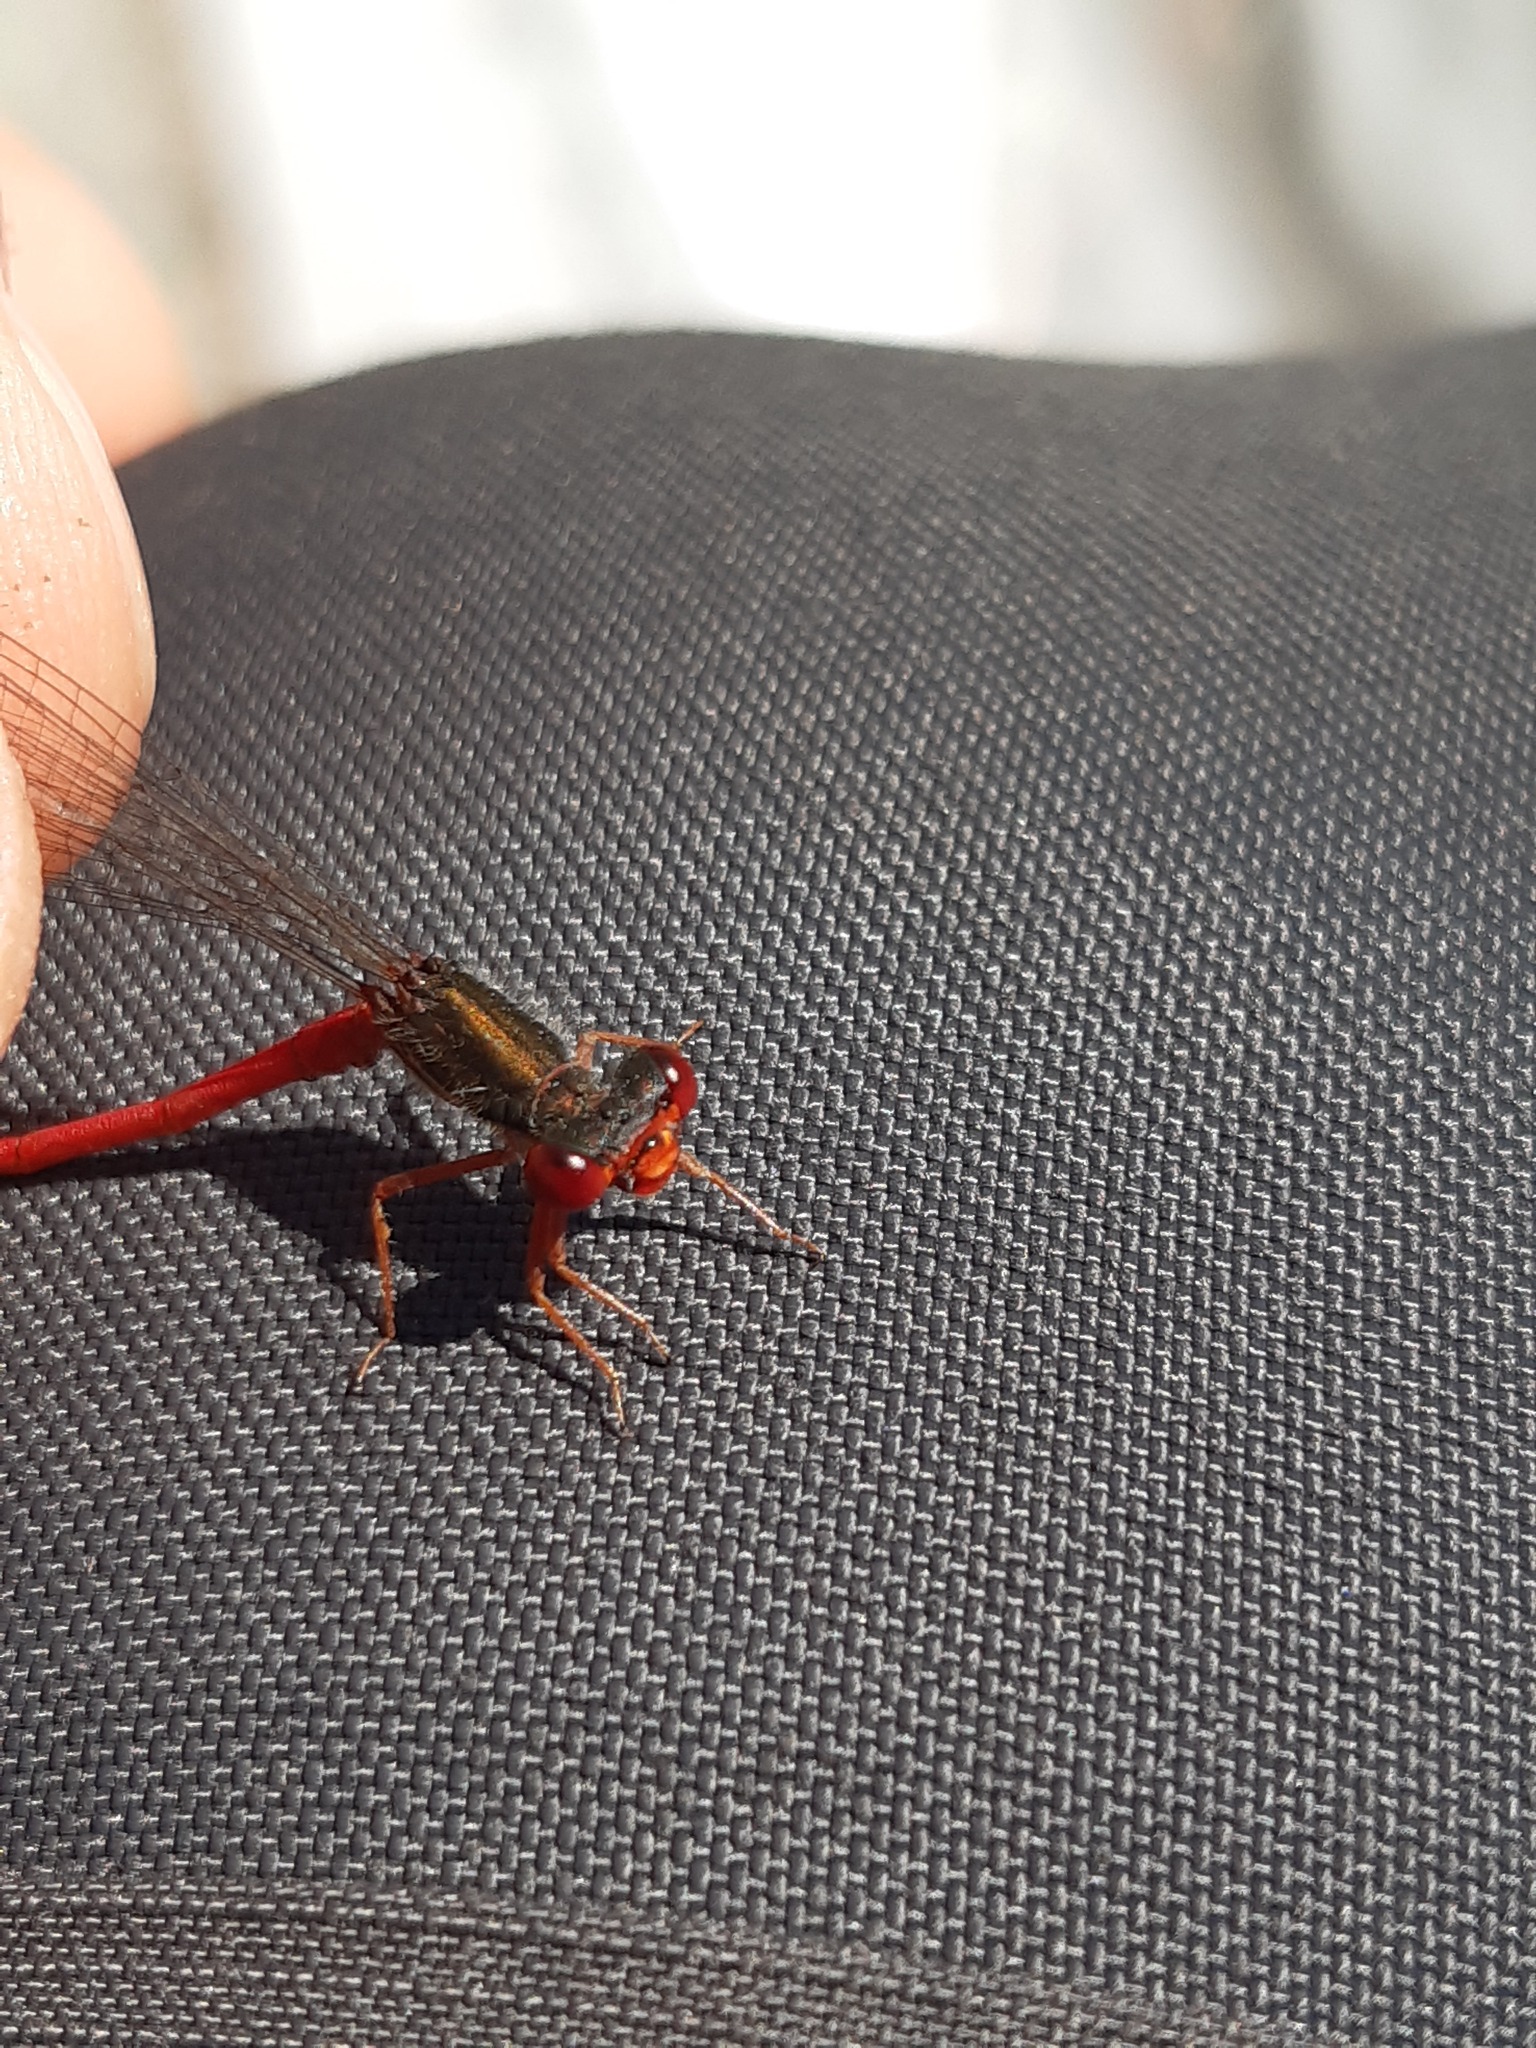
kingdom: Animalia
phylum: Arthropoda
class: Insecta
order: Odonata
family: Coenagrionidae
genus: Ceriagrion
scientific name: Ceriagrion tenellum
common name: Small red damselfly
